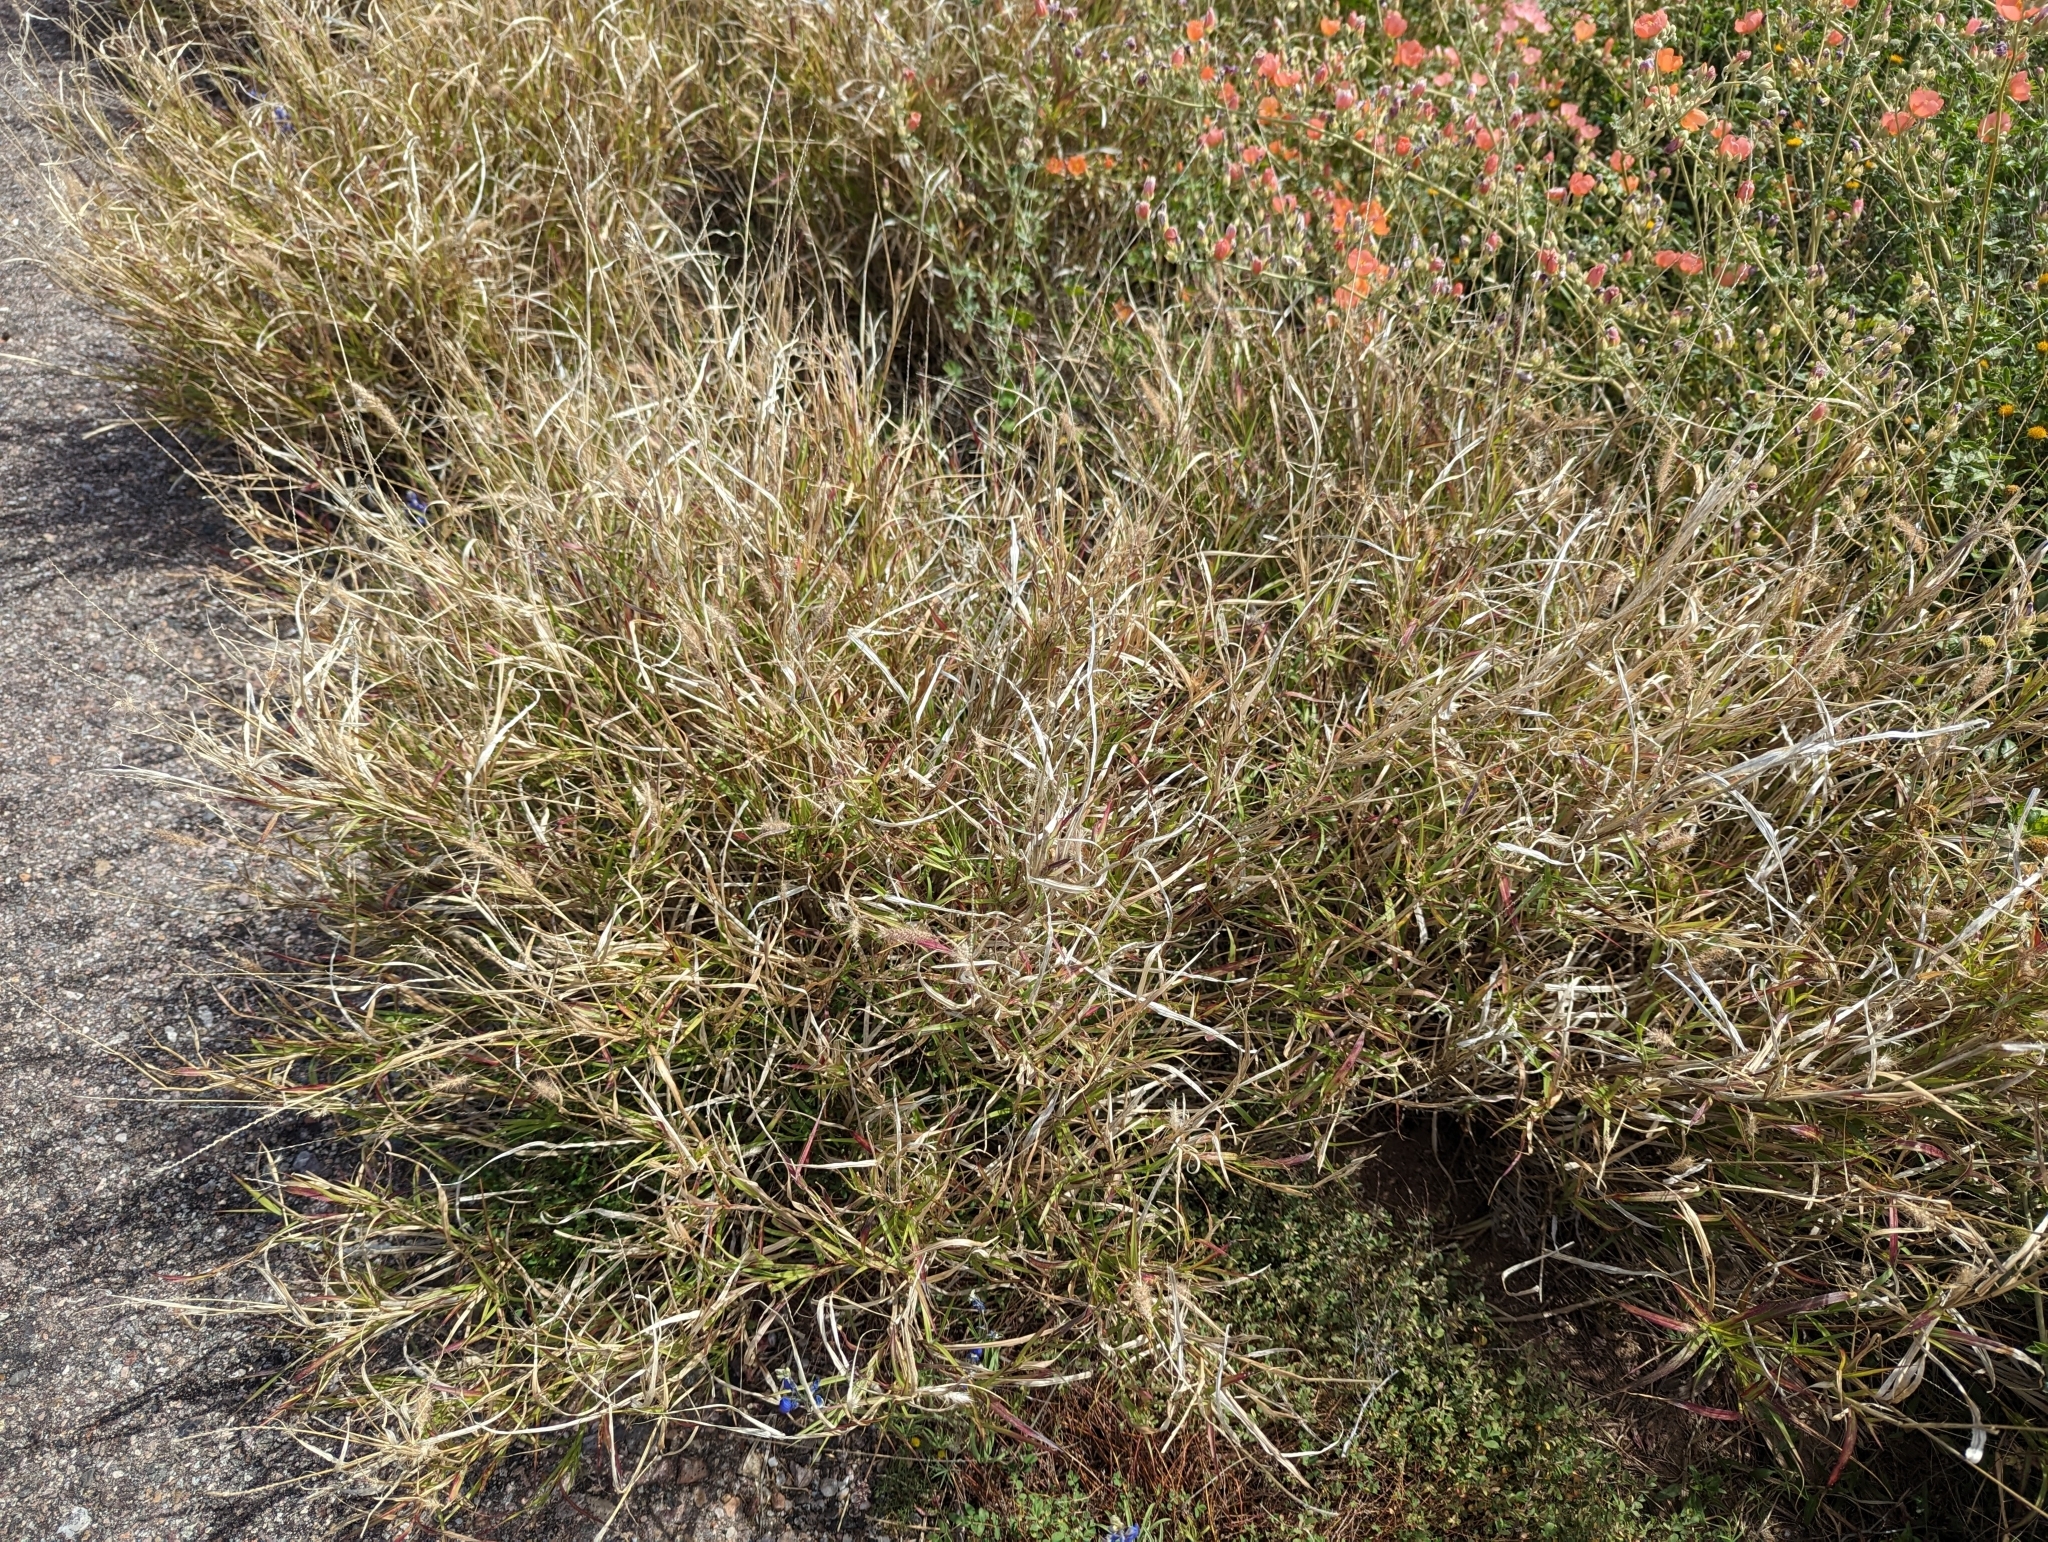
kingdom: Plantae
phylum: Tracheophyta
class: Liliopsida
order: Poales
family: Poaceae
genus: Cenchrus
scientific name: Cenchrus ciliaris
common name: Buffelgrass
